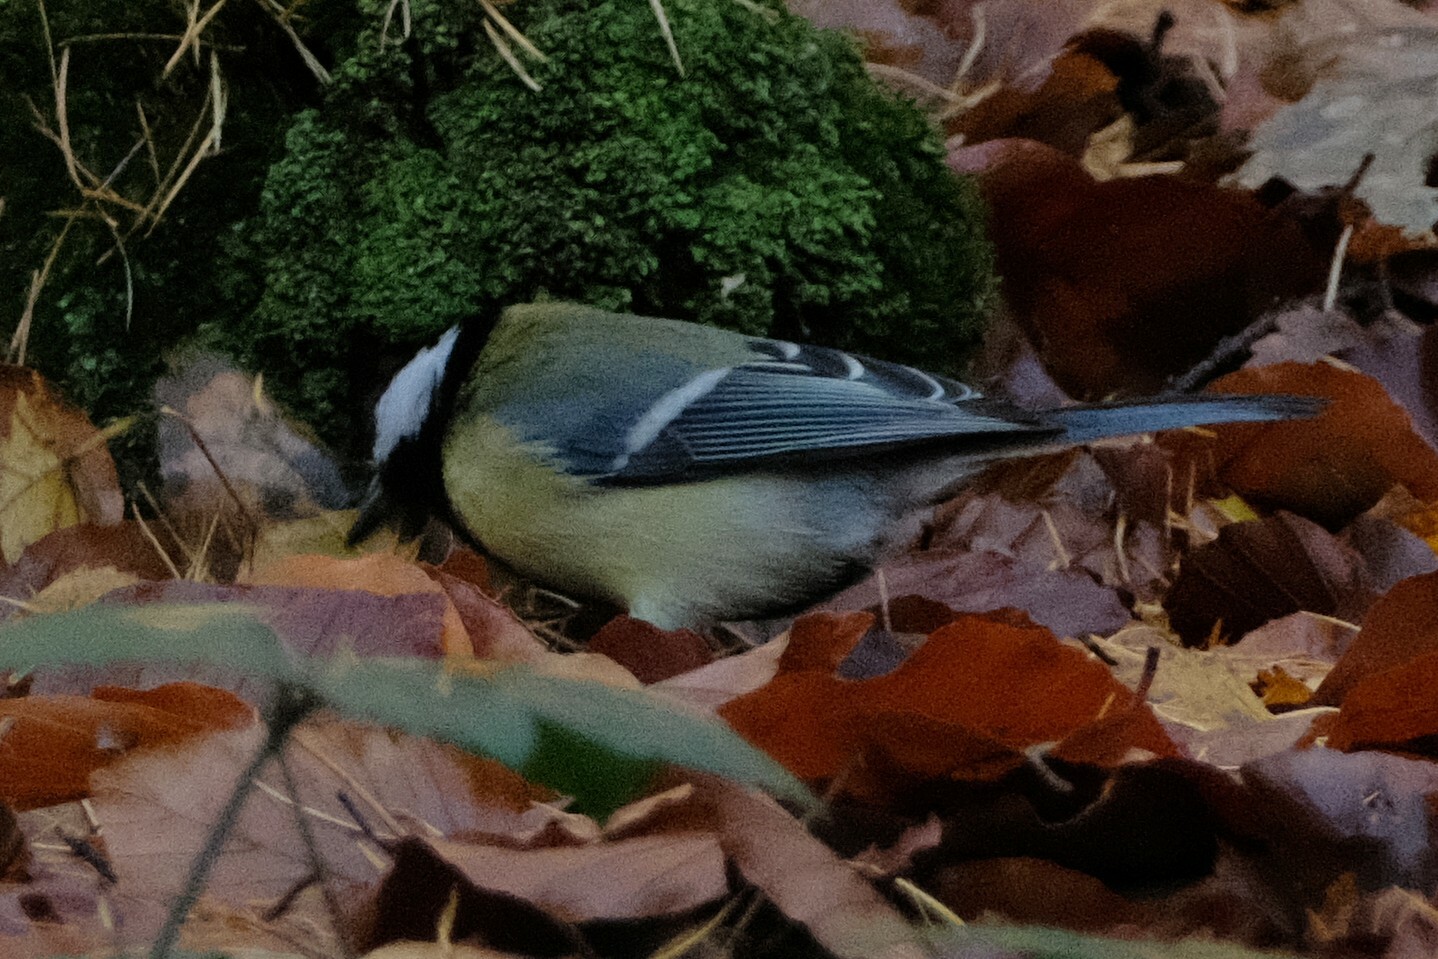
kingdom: Animalia
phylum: Chordata
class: Aves
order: Passeriformes
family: Paridae
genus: Parus
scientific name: Parus major
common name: Great tit
